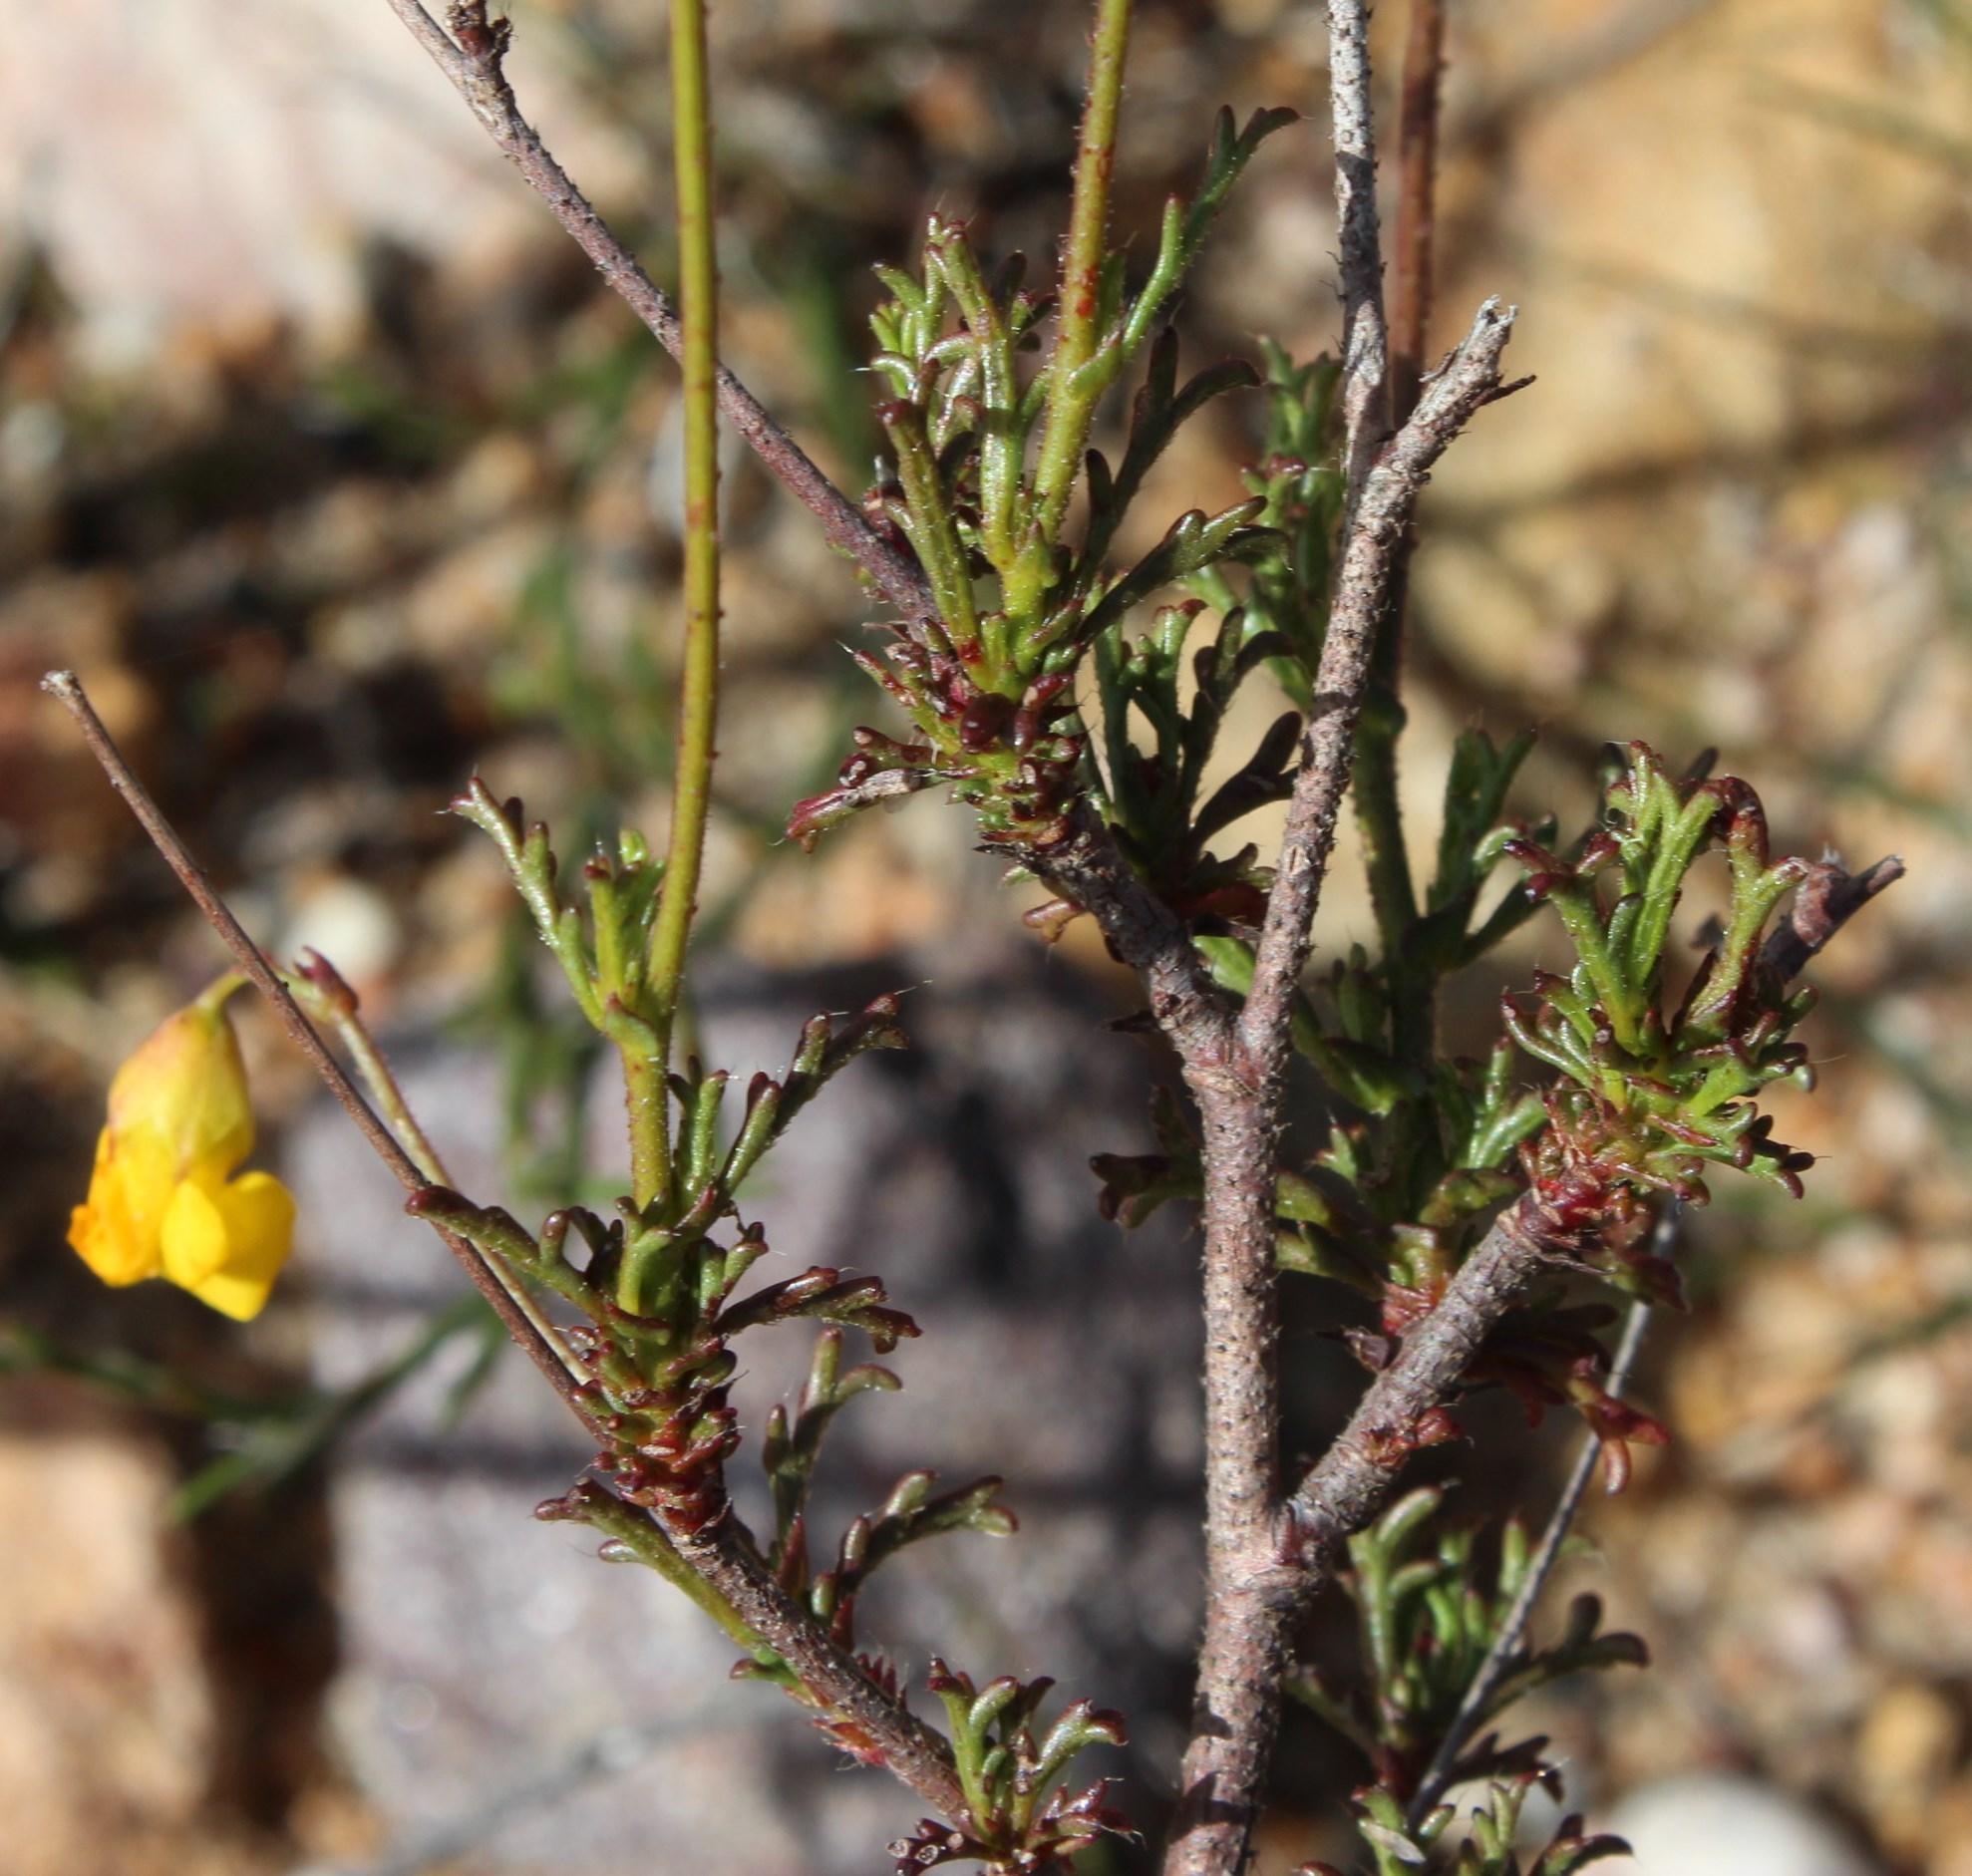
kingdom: Plantae
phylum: Tracheophyta
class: Magnoliopsida
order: Malvales
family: Malvaceae
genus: Hermannia
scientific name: Hermannia confusa
